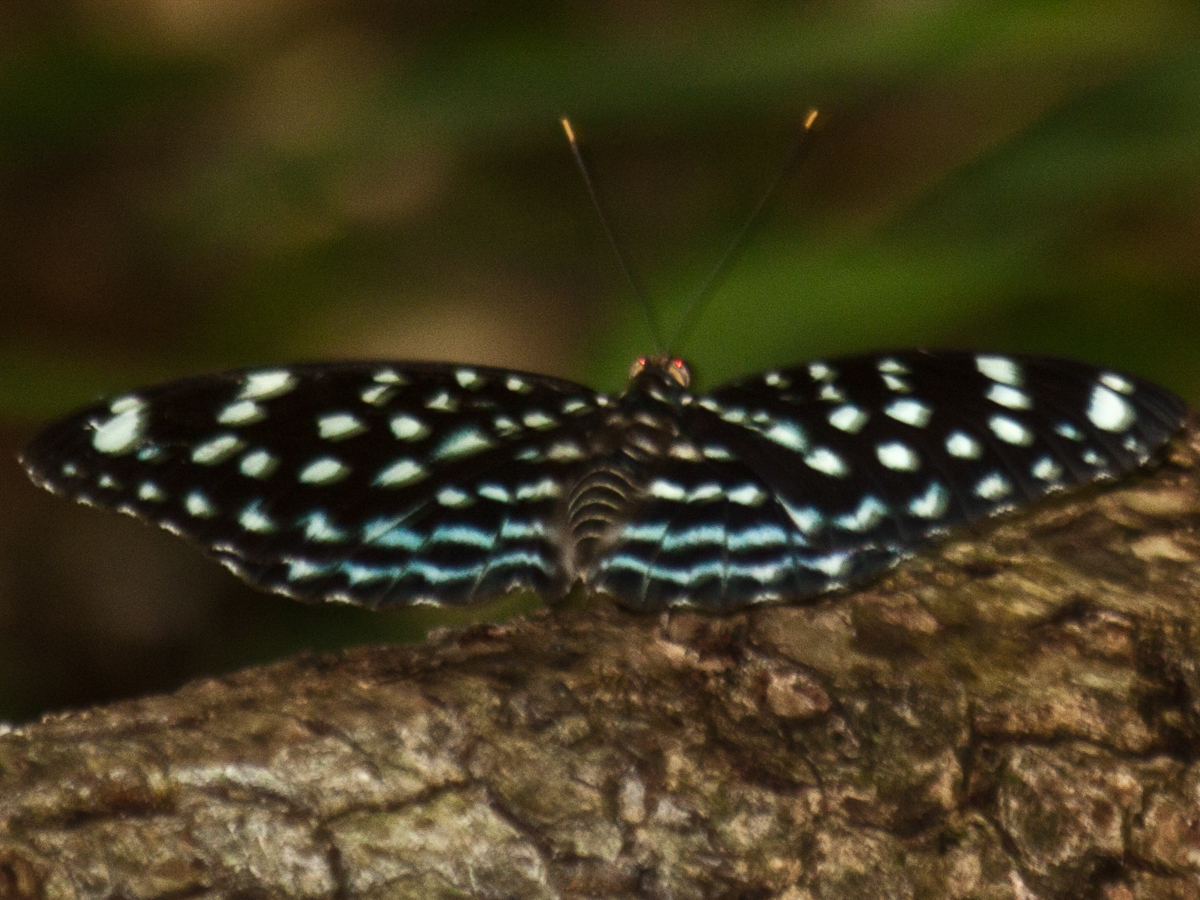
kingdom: Animalia
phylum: Arthropoda
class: Insecta
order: Lepidoptera
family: Nymphalidae
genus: Lexias
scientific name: Lexias
